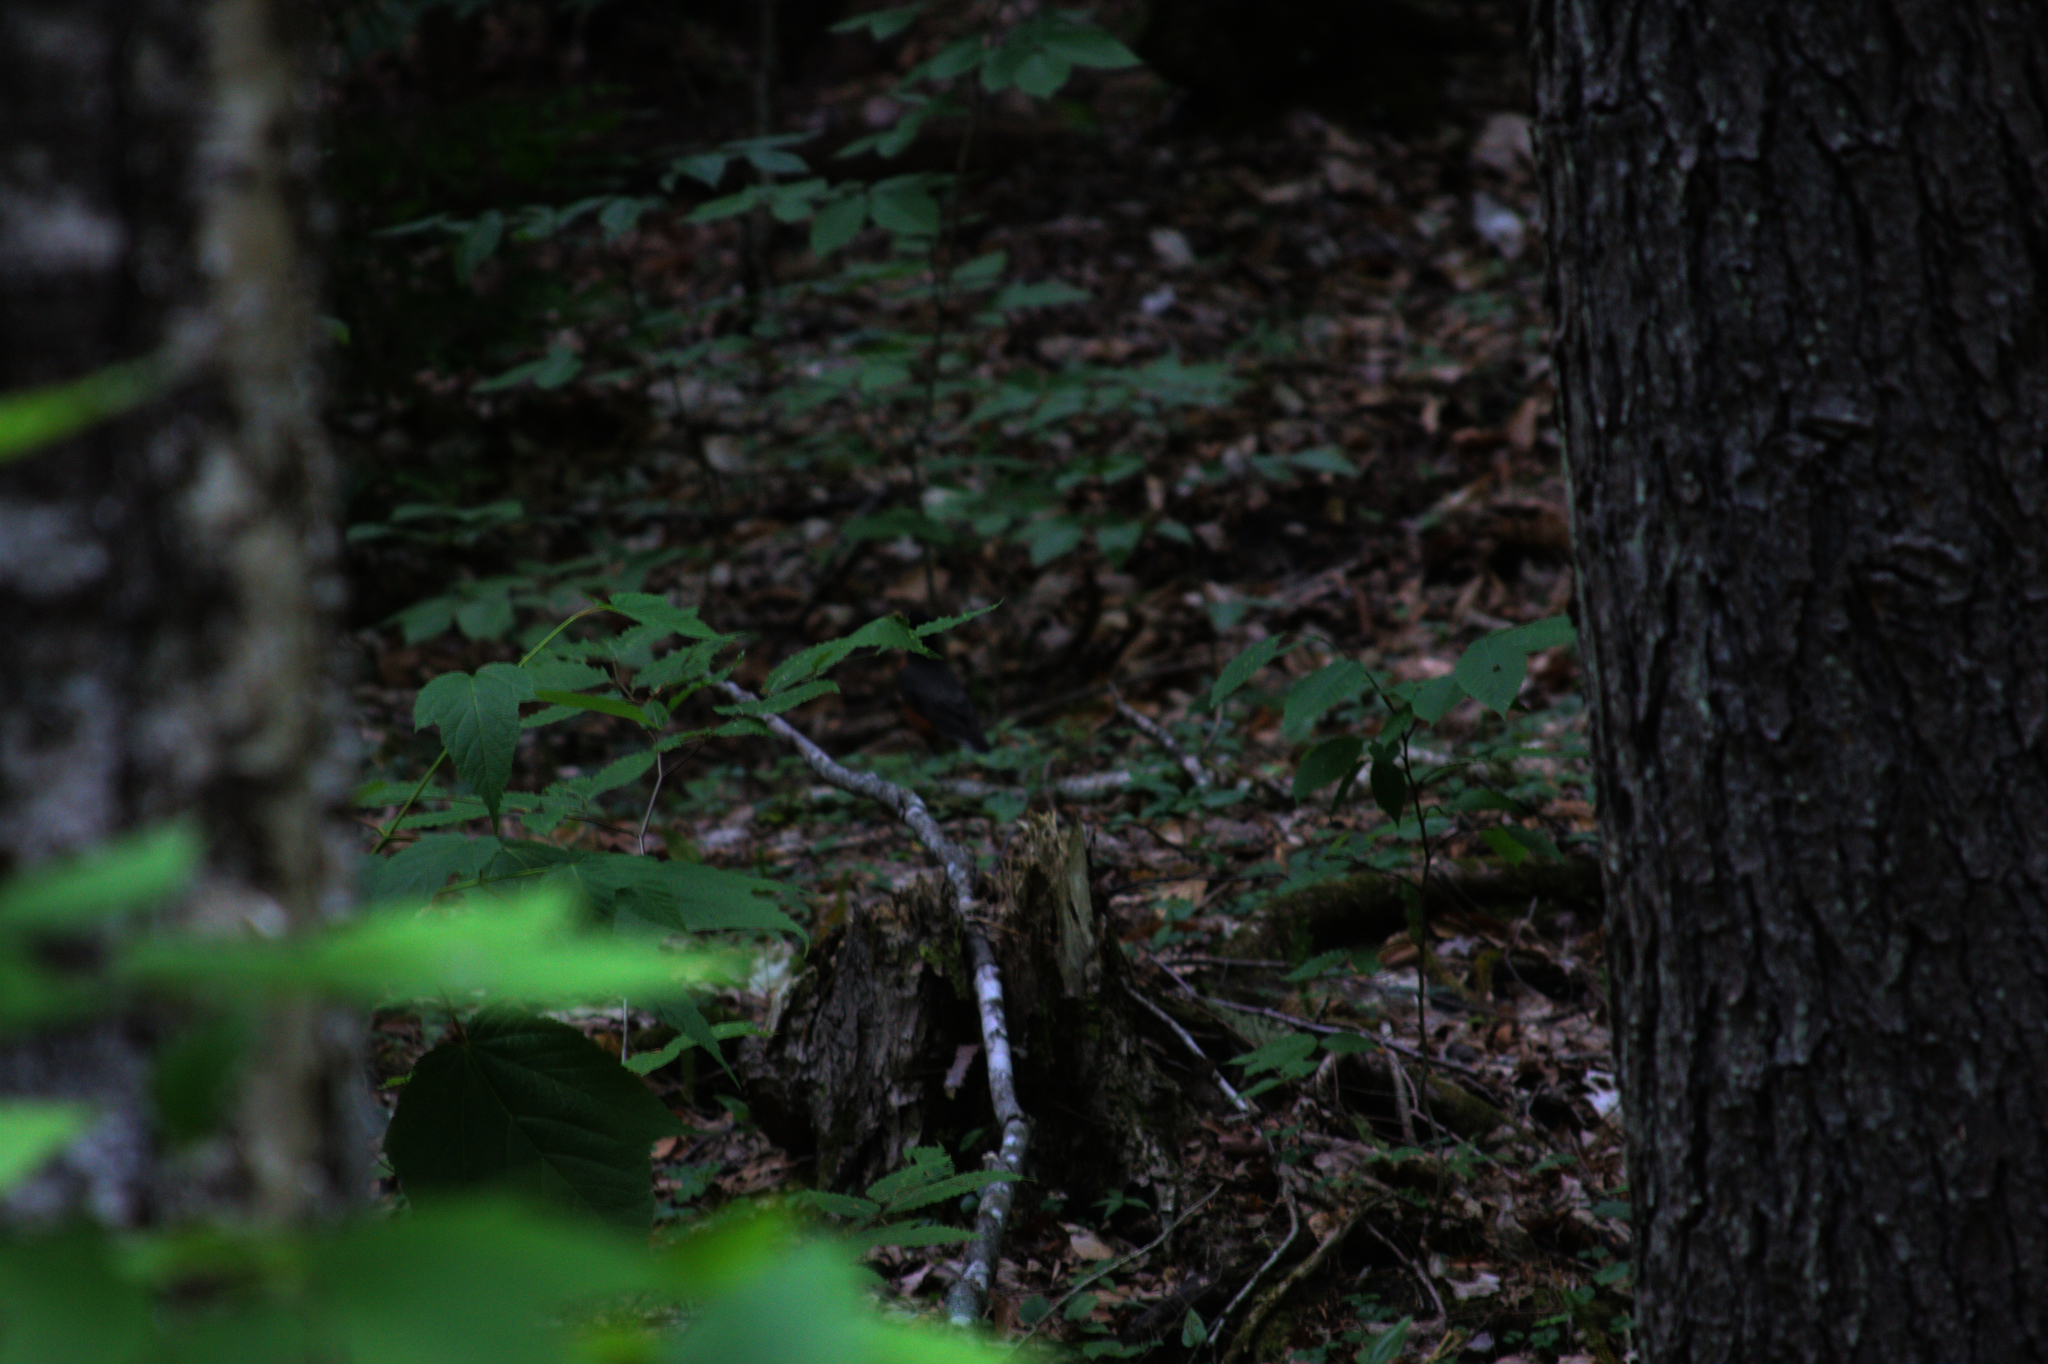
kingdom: Animalia
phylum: Chordata
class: Aves
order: Passeriformes
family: Turdidae
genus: Turdus
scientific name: Turdus migratorius
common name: American robin
